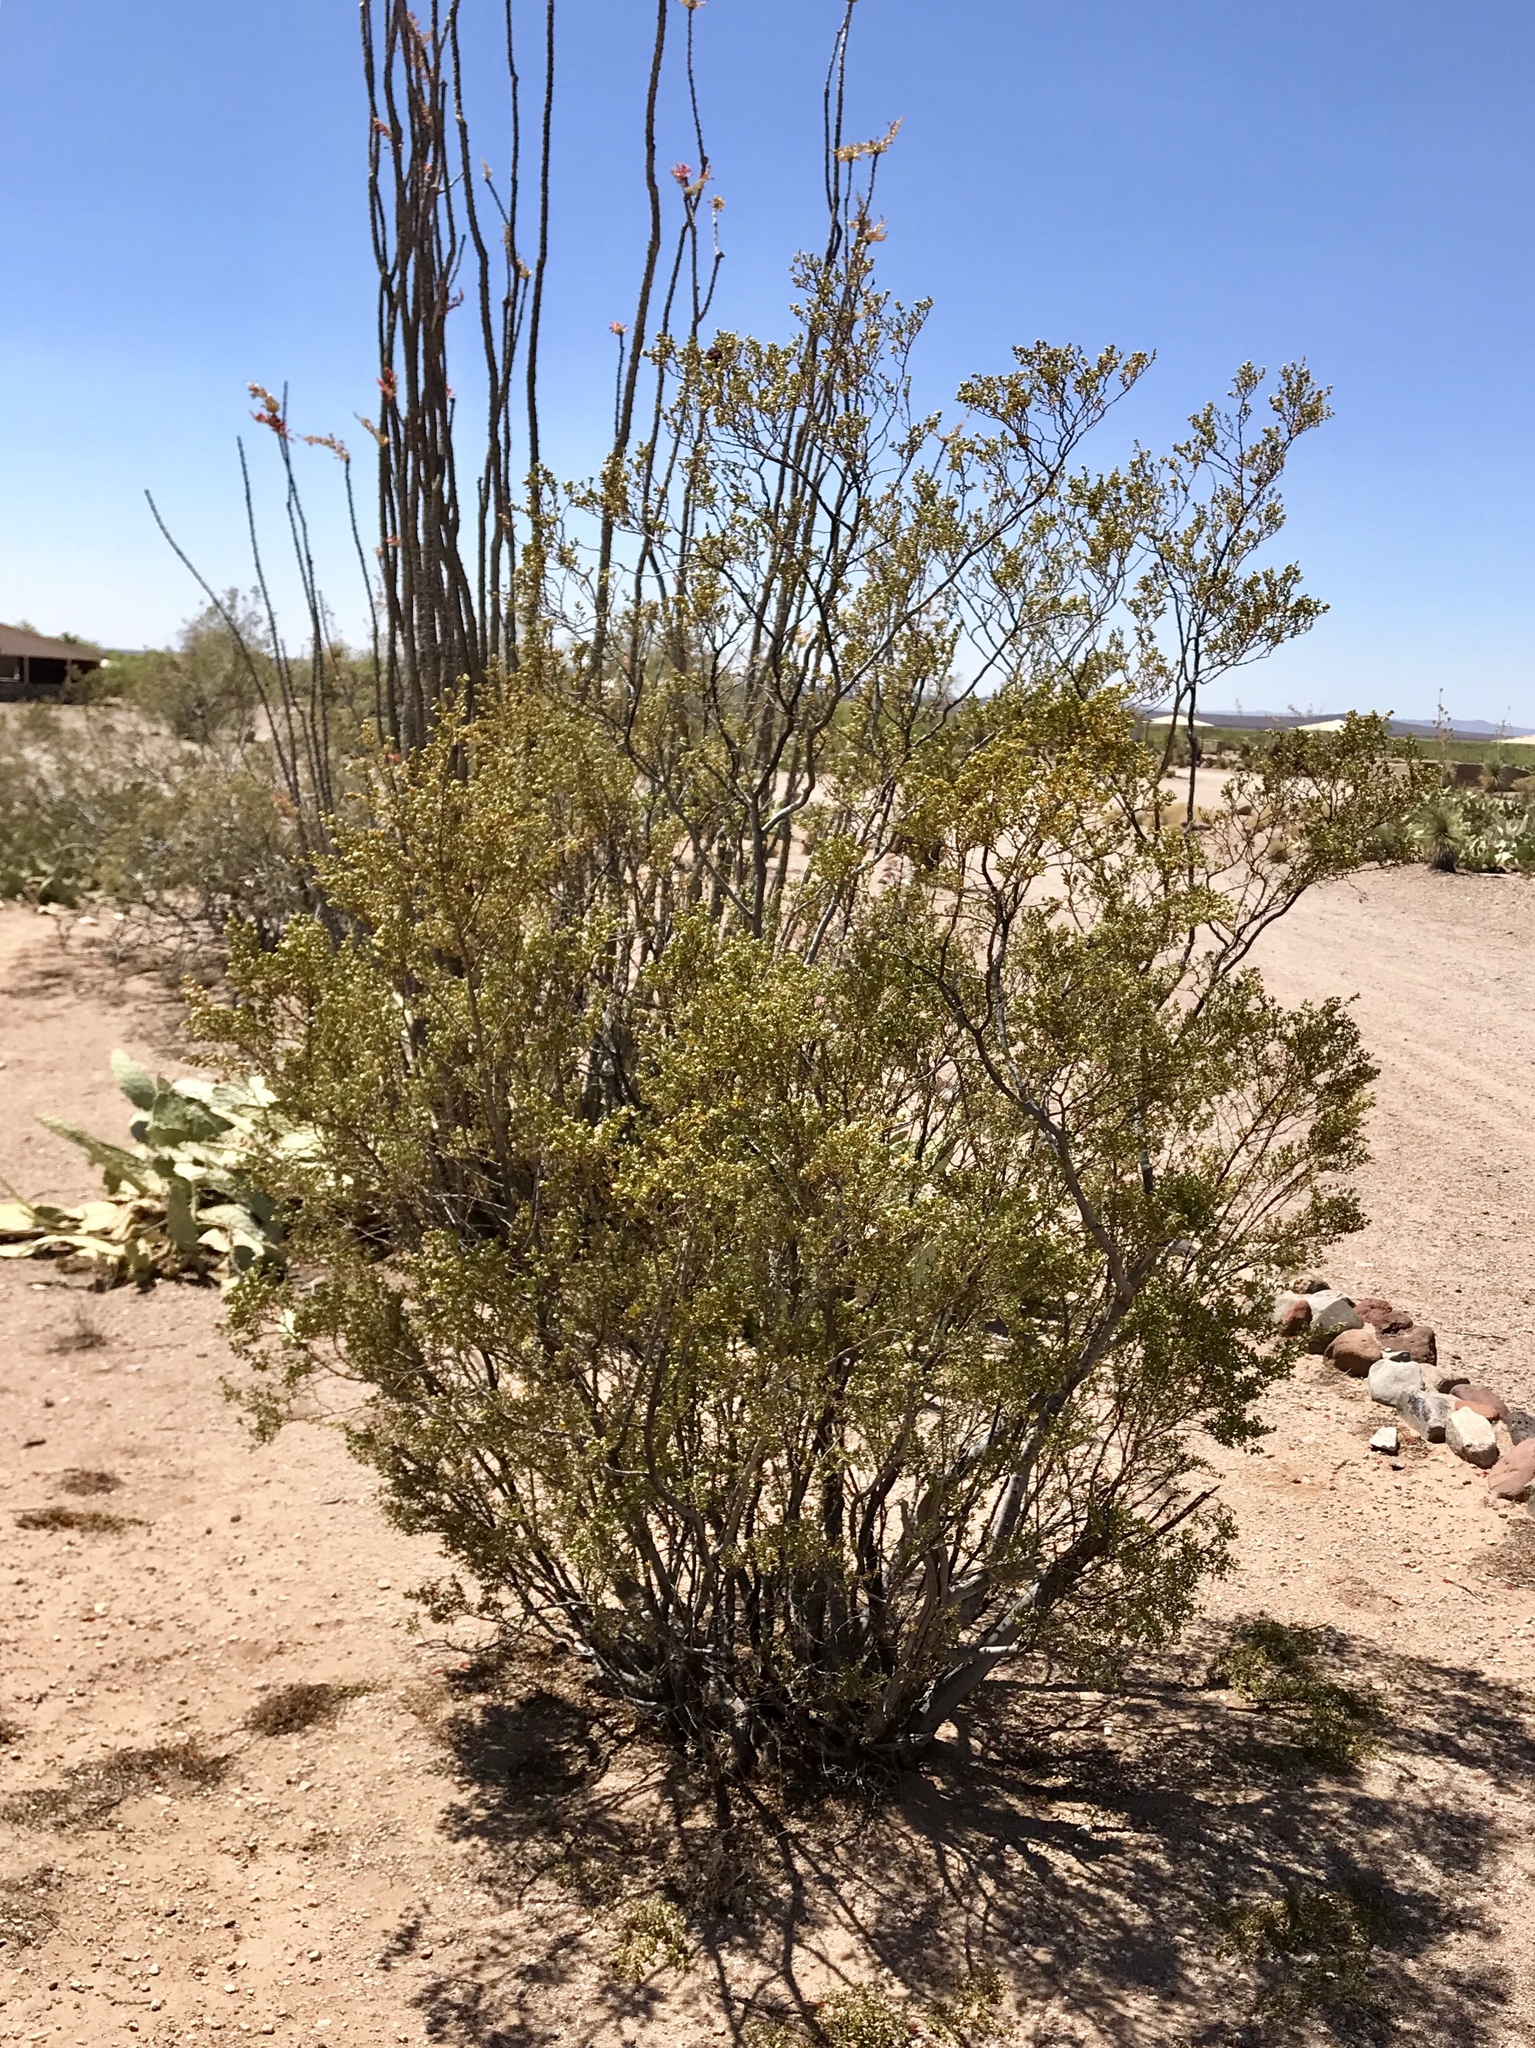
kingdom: Plantae
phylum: Tracheophyta
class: Magnoliopsida
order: Zygophyllales
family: Zygophyllaceae
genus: Larrea
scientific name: Larrea tridentata
